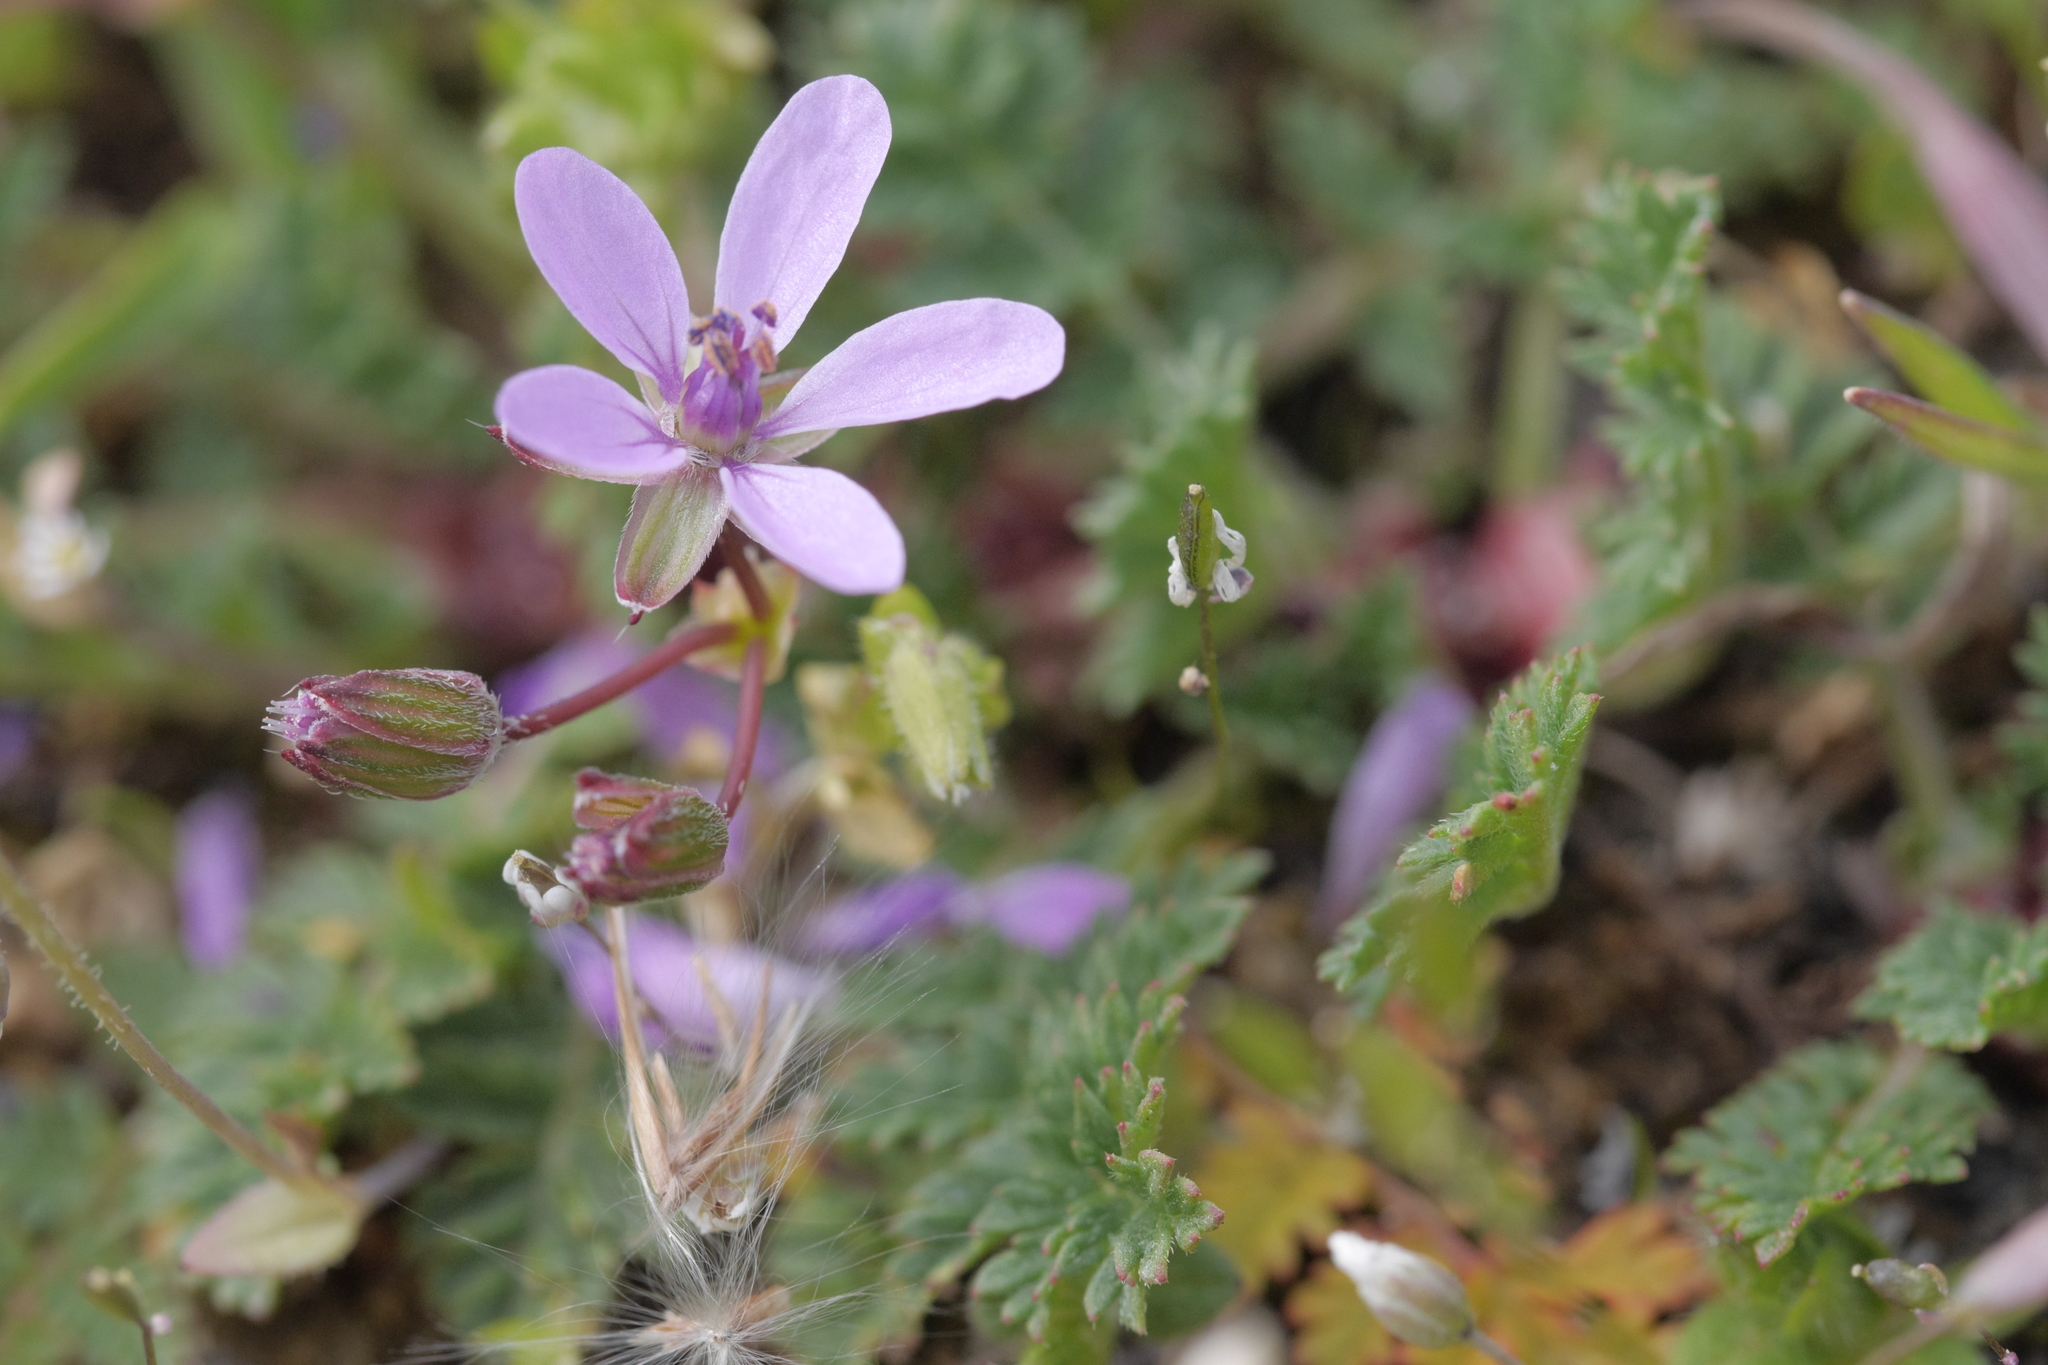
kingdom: Plantae
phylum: Tracheophyta
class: Magnoliopsida
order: Geraniales
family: Geraniaceae
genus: Erodium
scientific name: Erodium cicutarium
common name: Common stork's-bill
